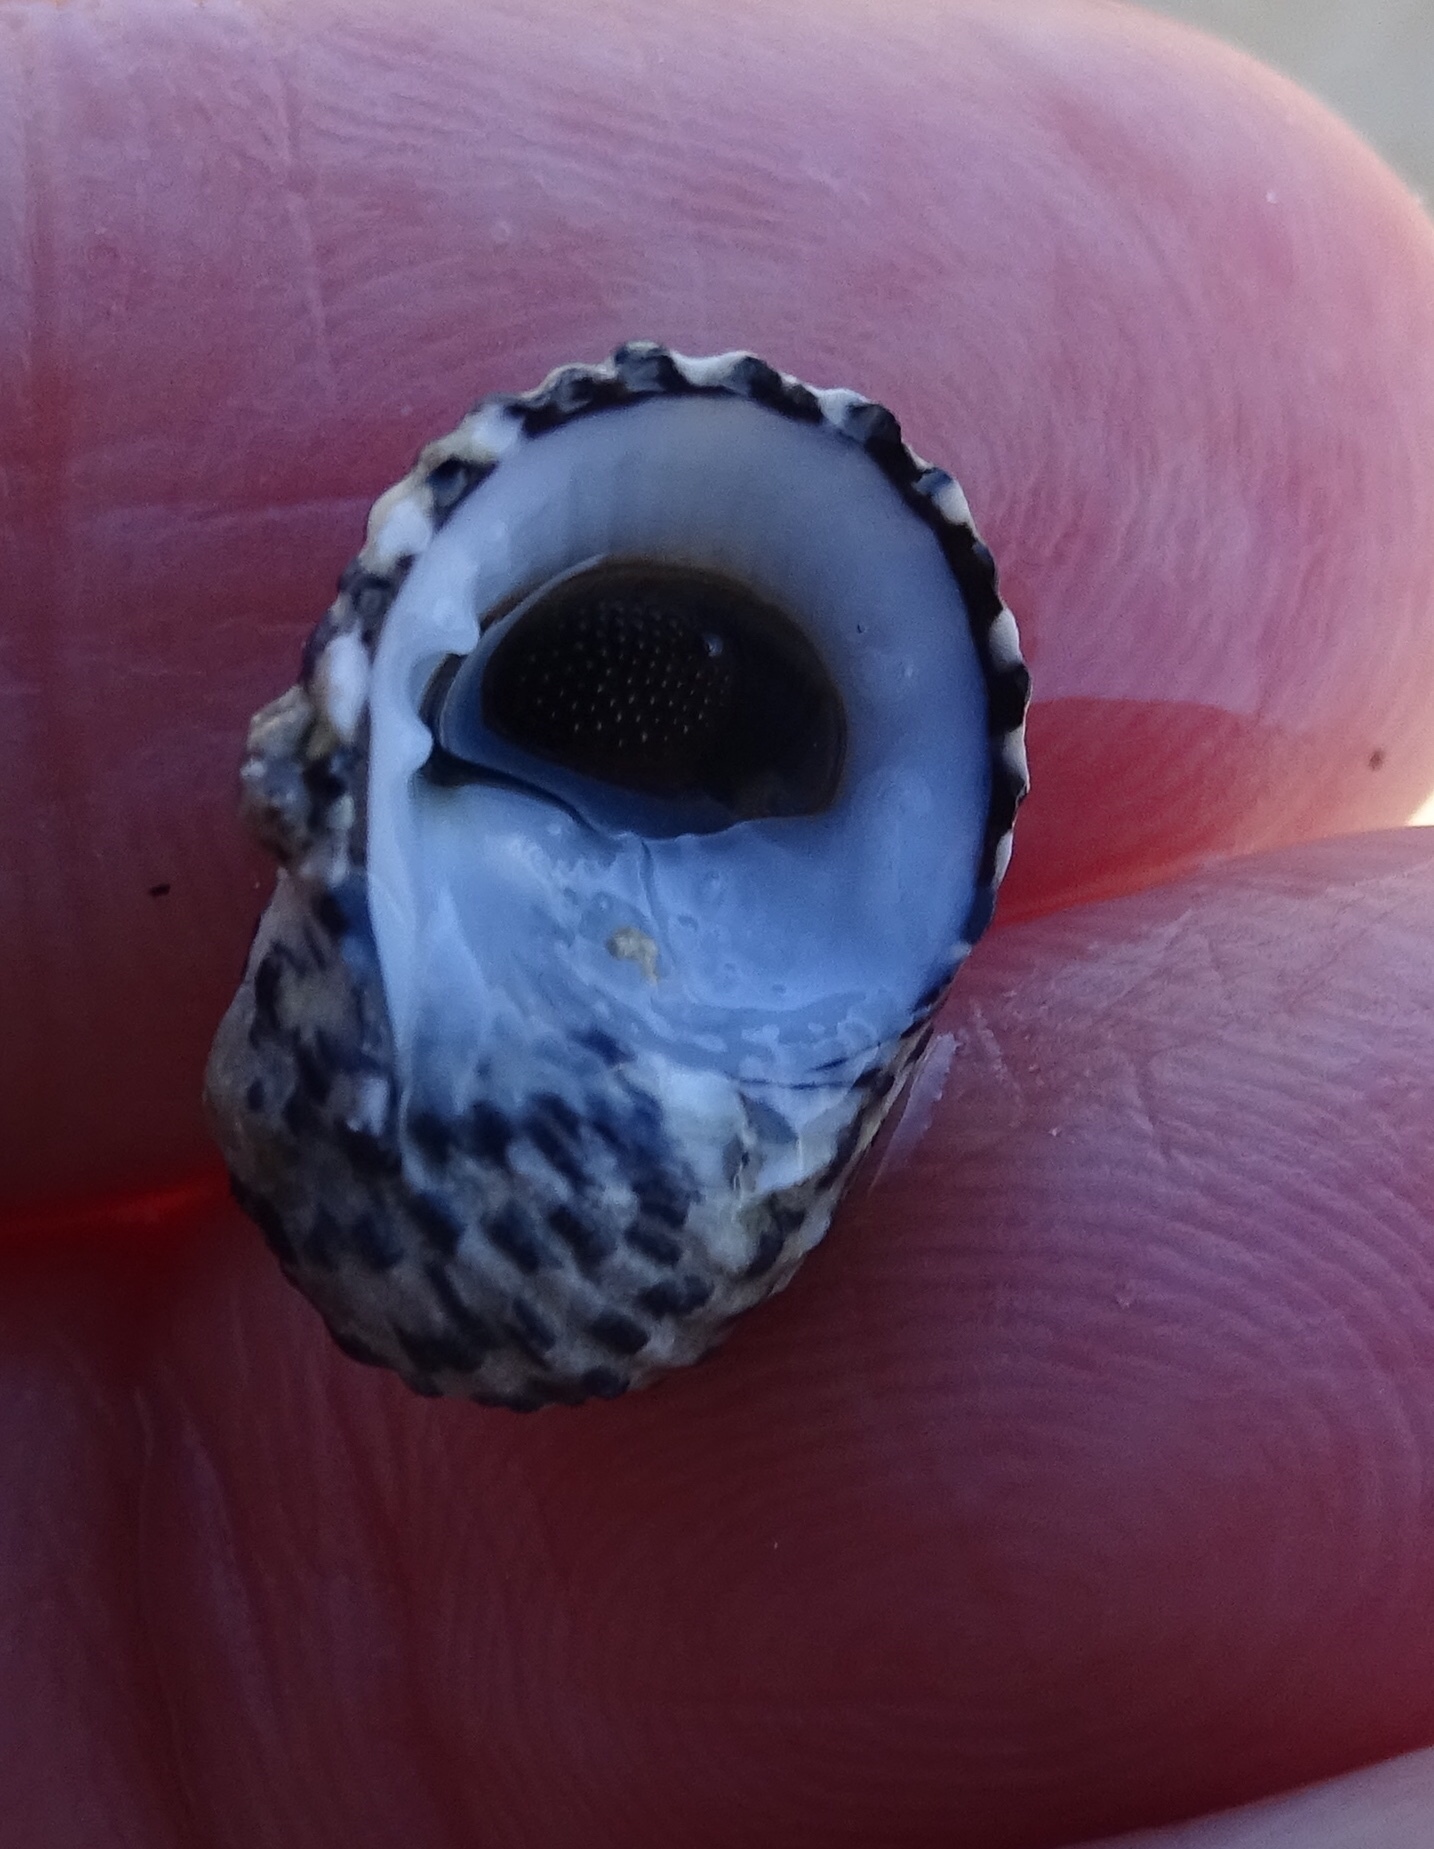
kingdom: Animalia
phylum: Mollusca
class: Gastropoda
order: Cycloneritida
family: Neritidae
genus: Nerita
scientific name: Nerita tessellata
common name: Checkered nerite
